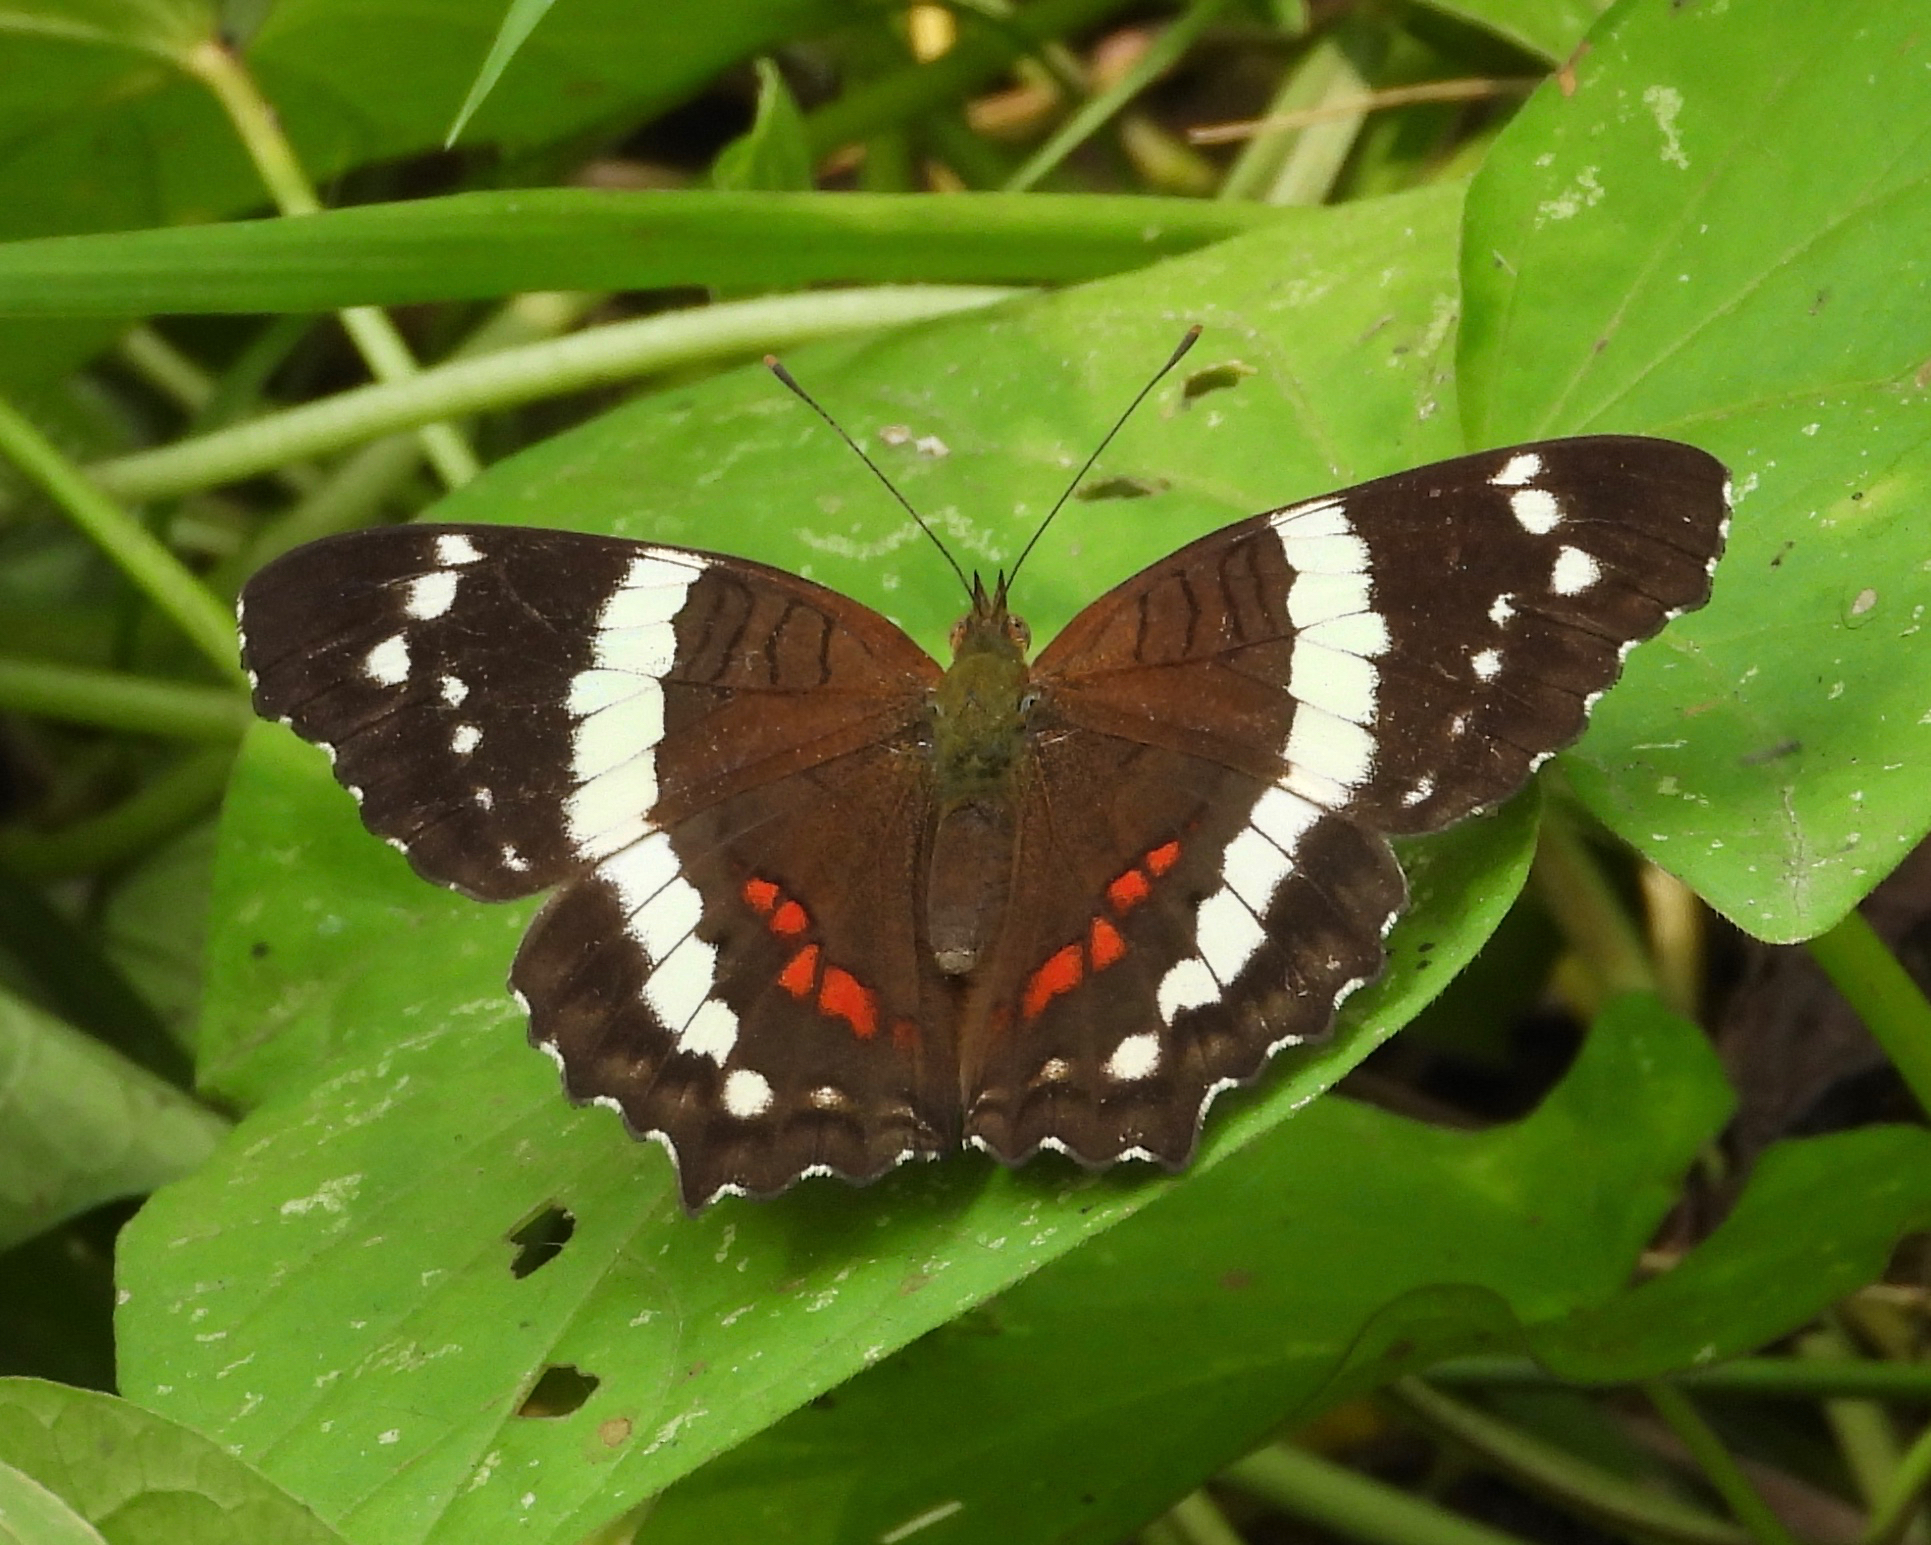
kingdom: Animalia
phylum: Arthropoda
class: Insecta
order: Lepidoptera
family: Nymphalidae
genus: Anartia
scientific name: Anartia fatima
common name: Banded peacock
